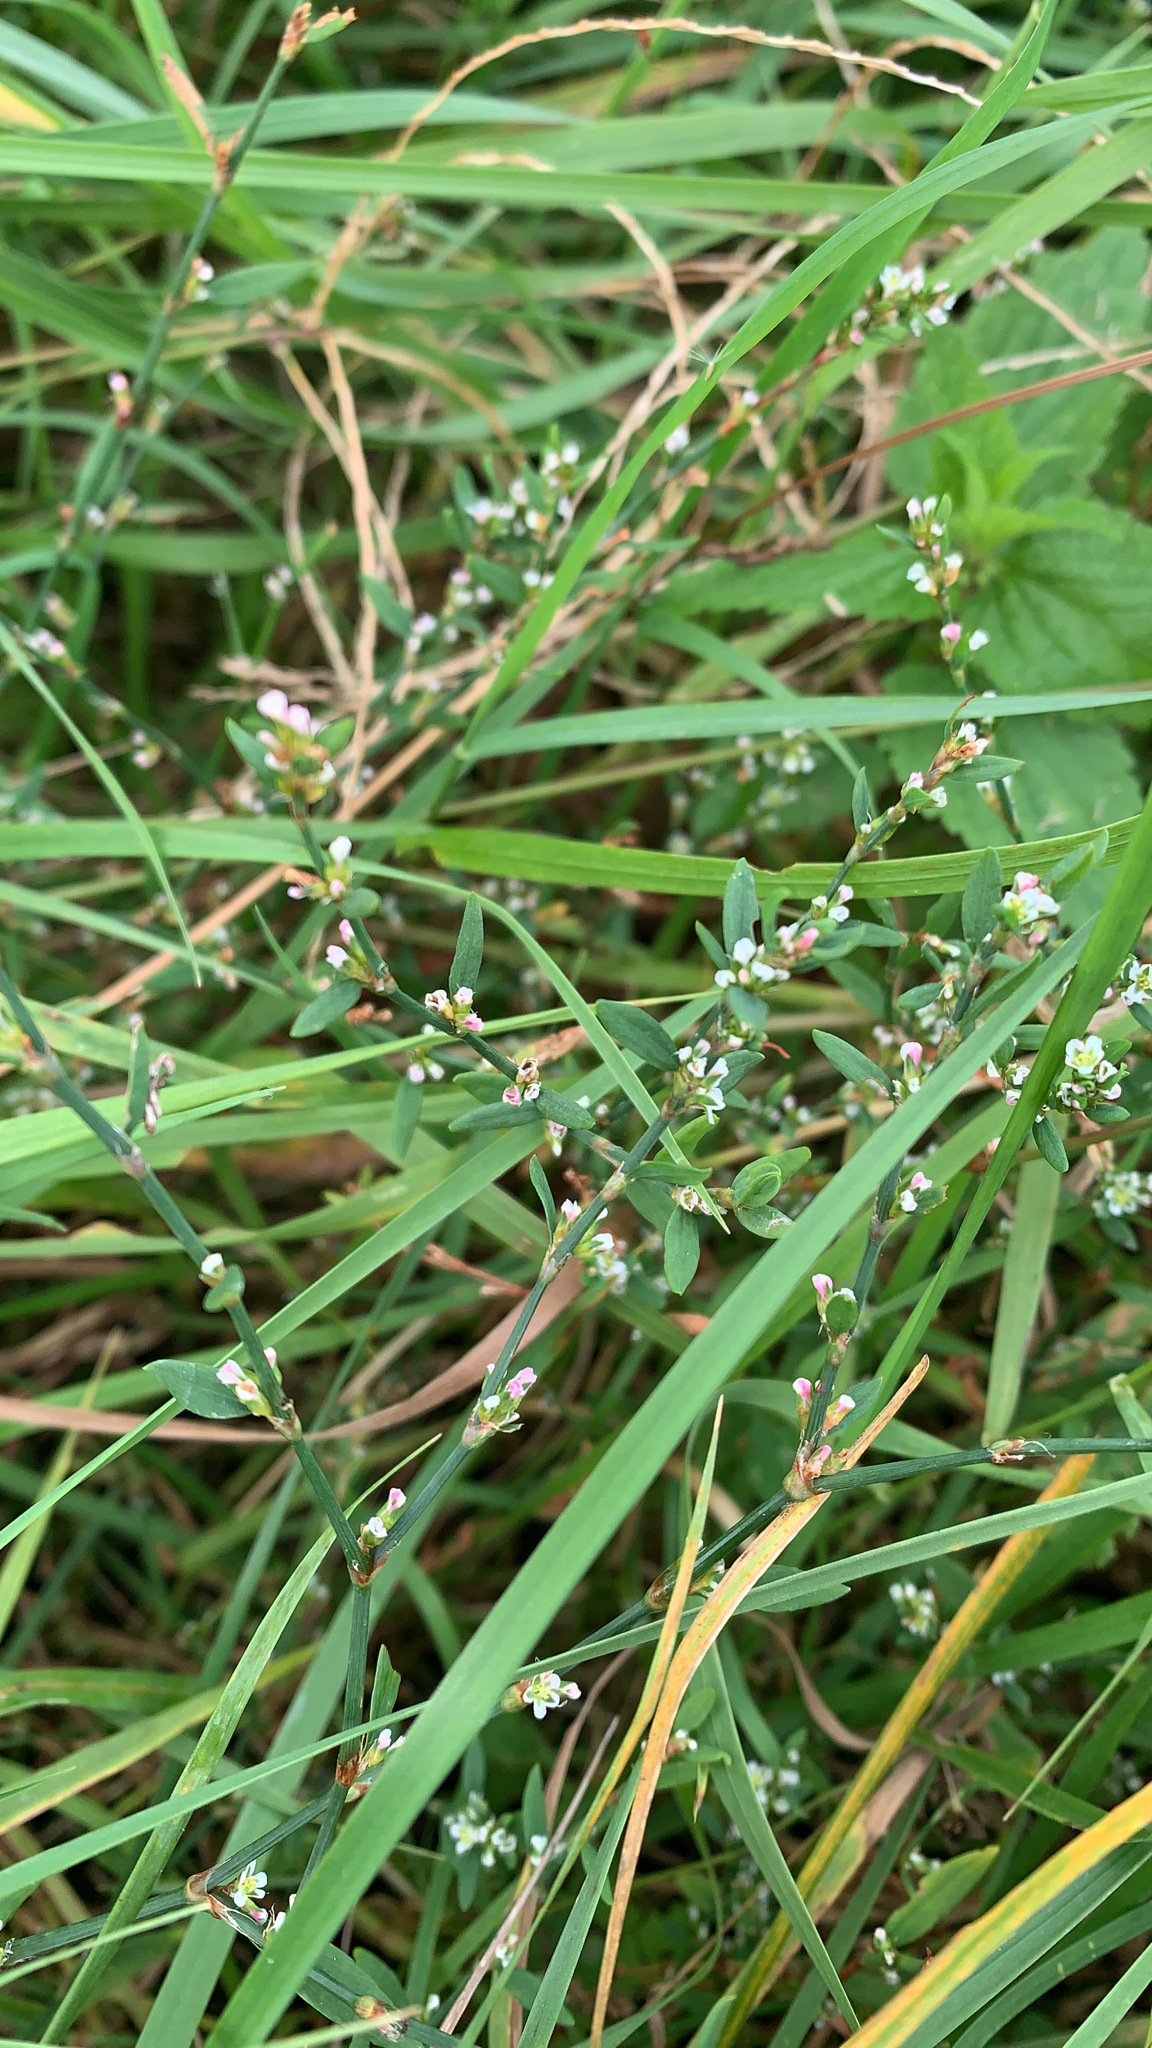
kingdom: Plantae
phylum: Tracheophyta
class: Magnoliopsida
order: Caryophyllales
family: Polygonaceae
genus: Polygonum
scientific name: Polygonum
